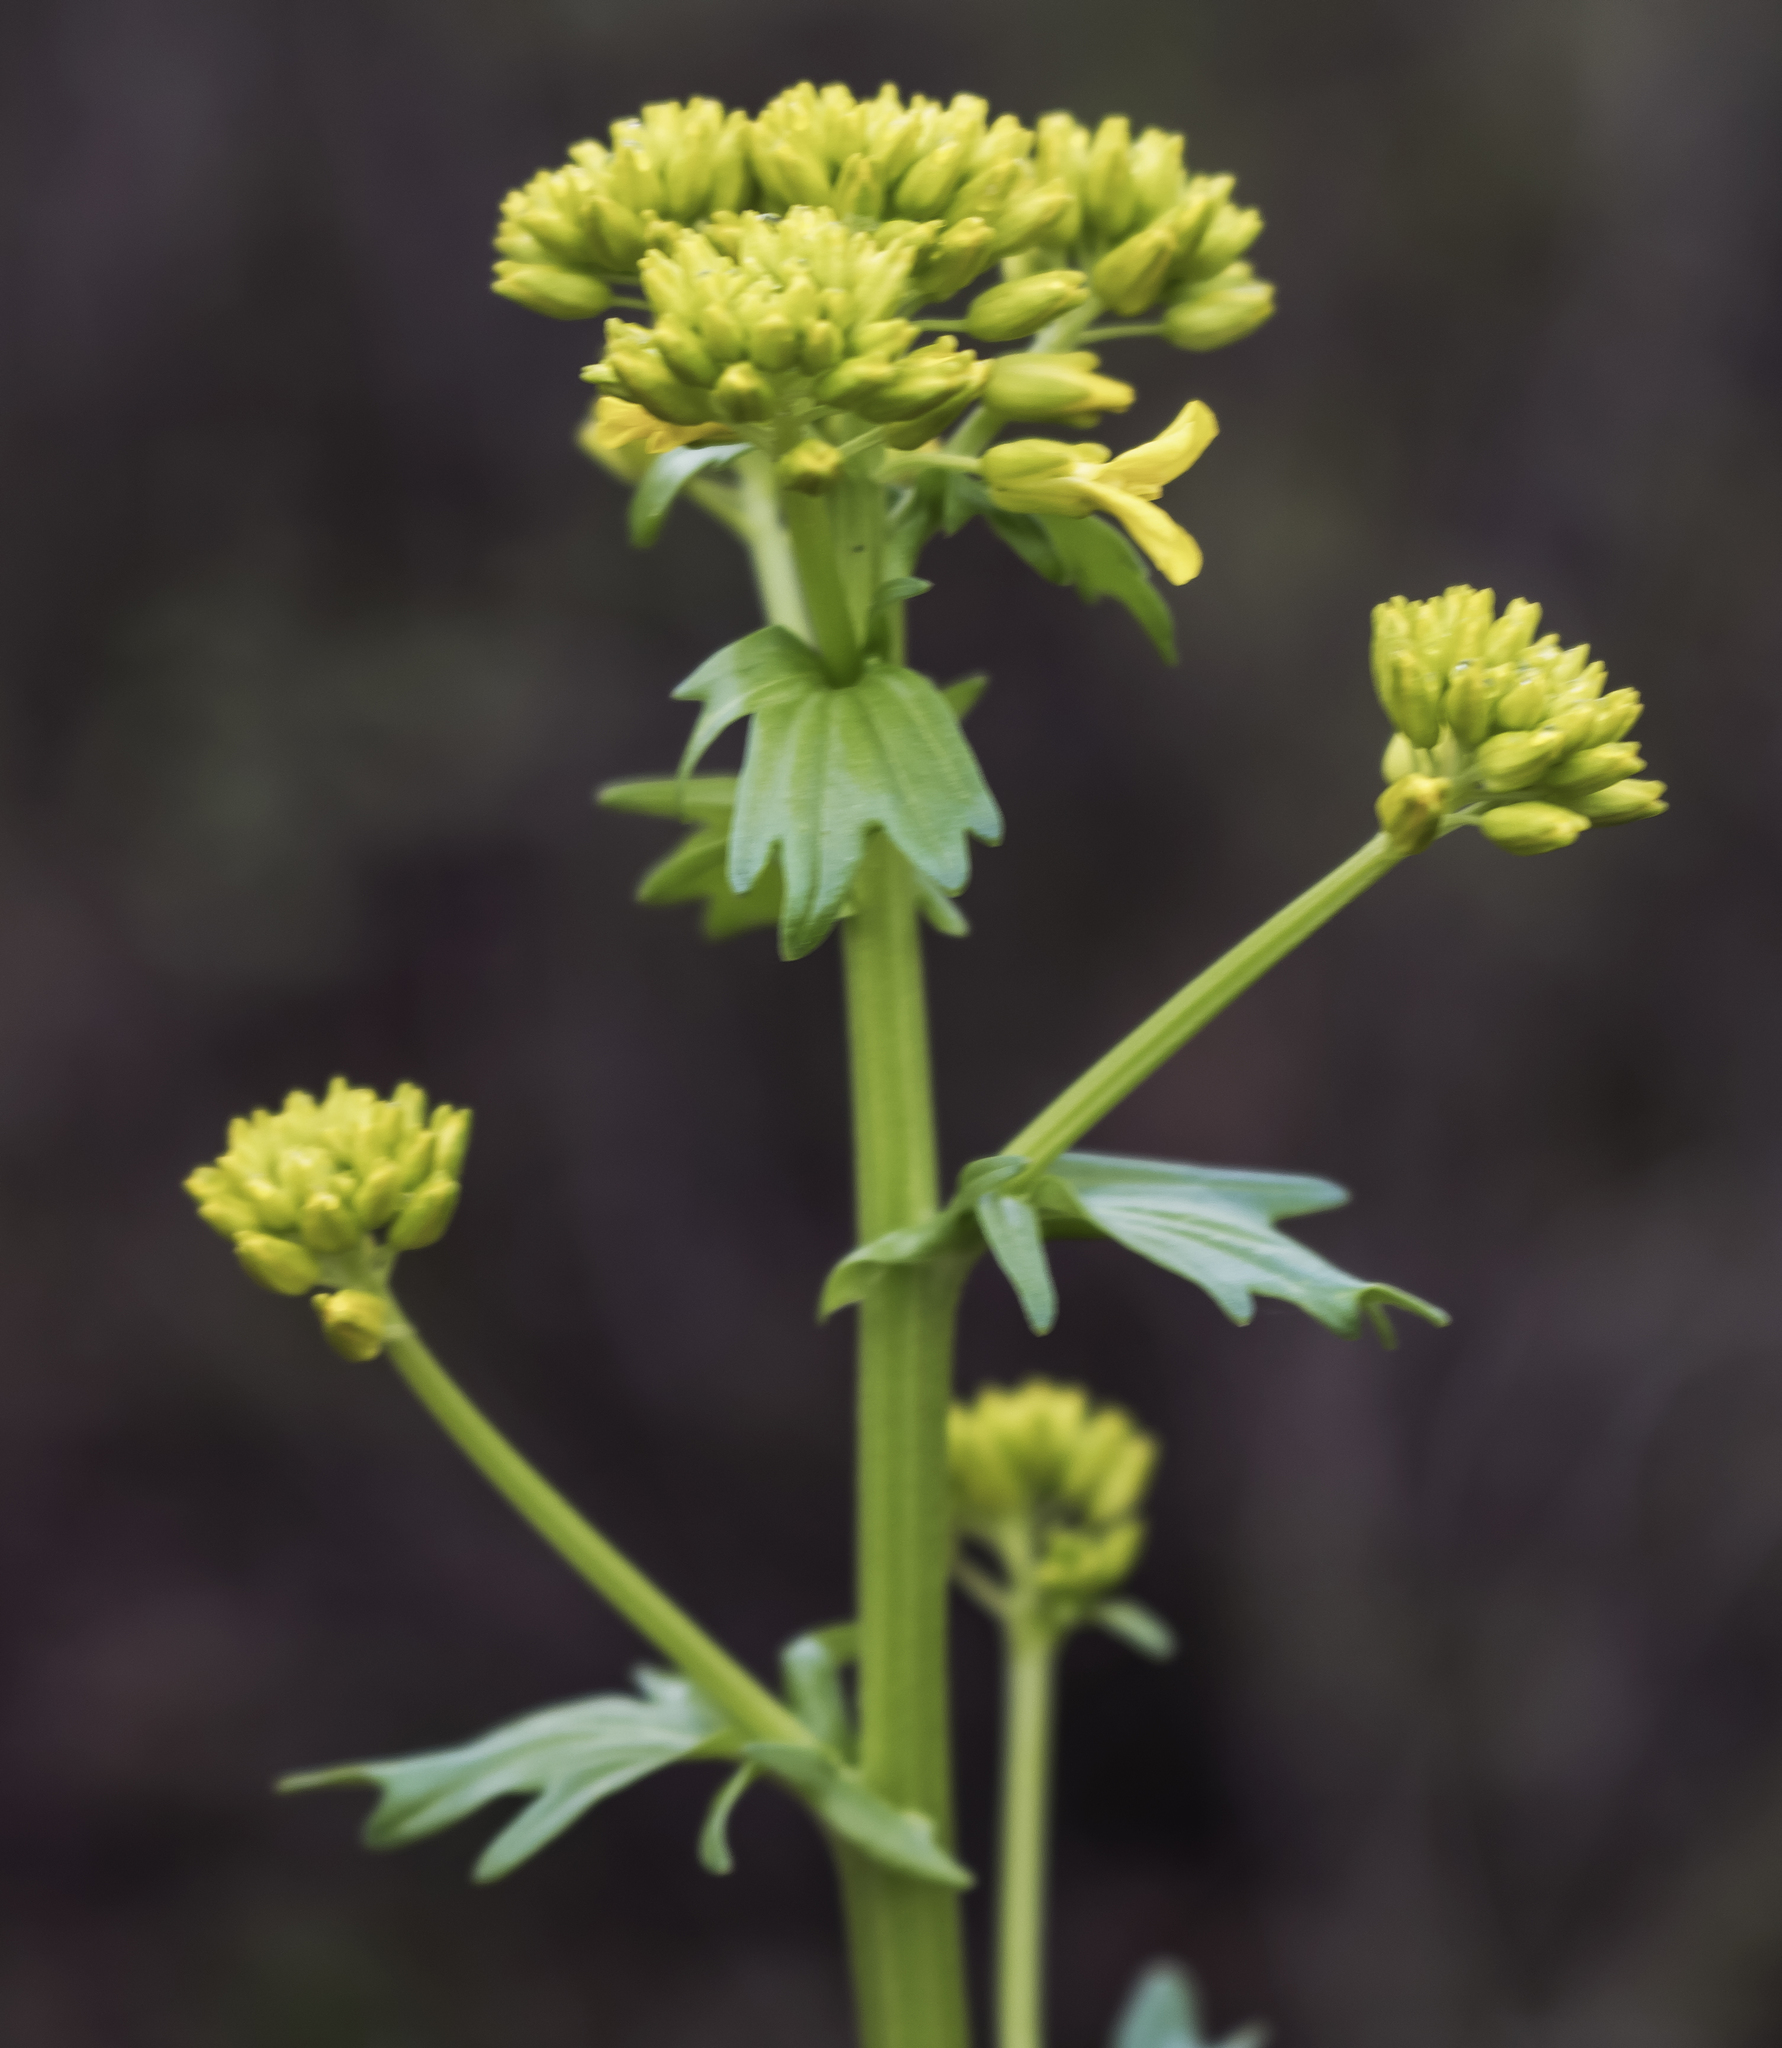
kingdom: Plantae
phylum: Tracheophyta
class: Magnoliopsida
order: Brassicales
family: Brassicaceae
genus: Barbarea
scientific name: Barbarea vulgaris
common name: Cressy-greens
